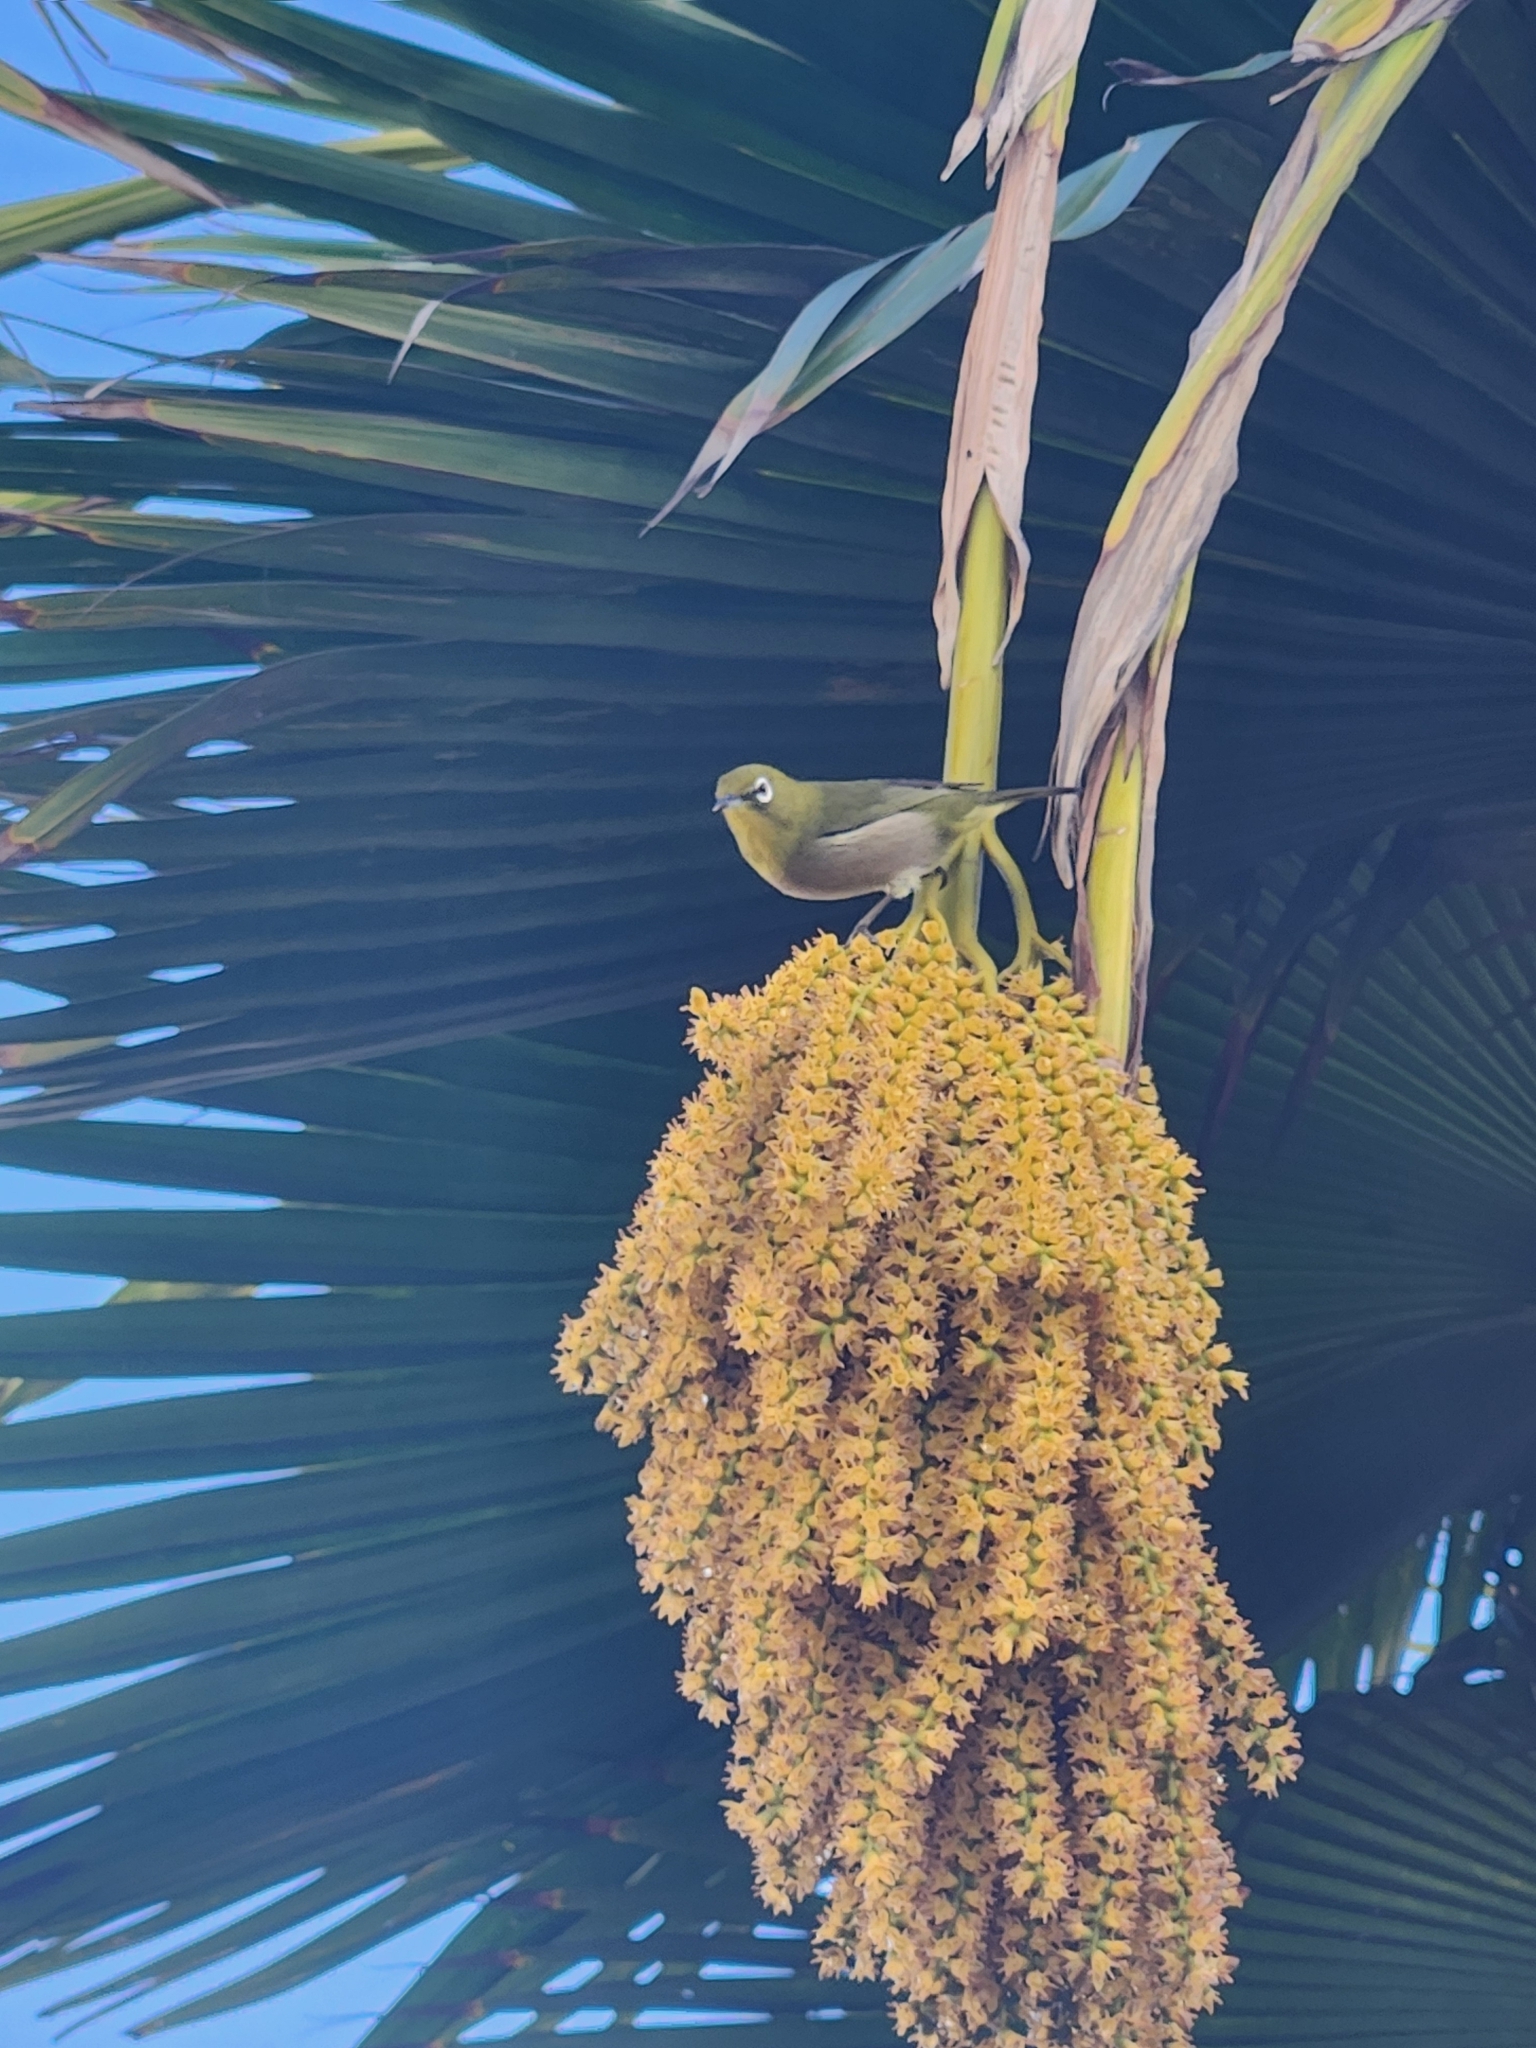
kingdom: Animalia
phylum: Chordata
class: Aves
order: Passeriformes
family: Zosteropidae
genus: Zosterops
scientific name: Zosterops japonicus
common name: Japanese white-eye
